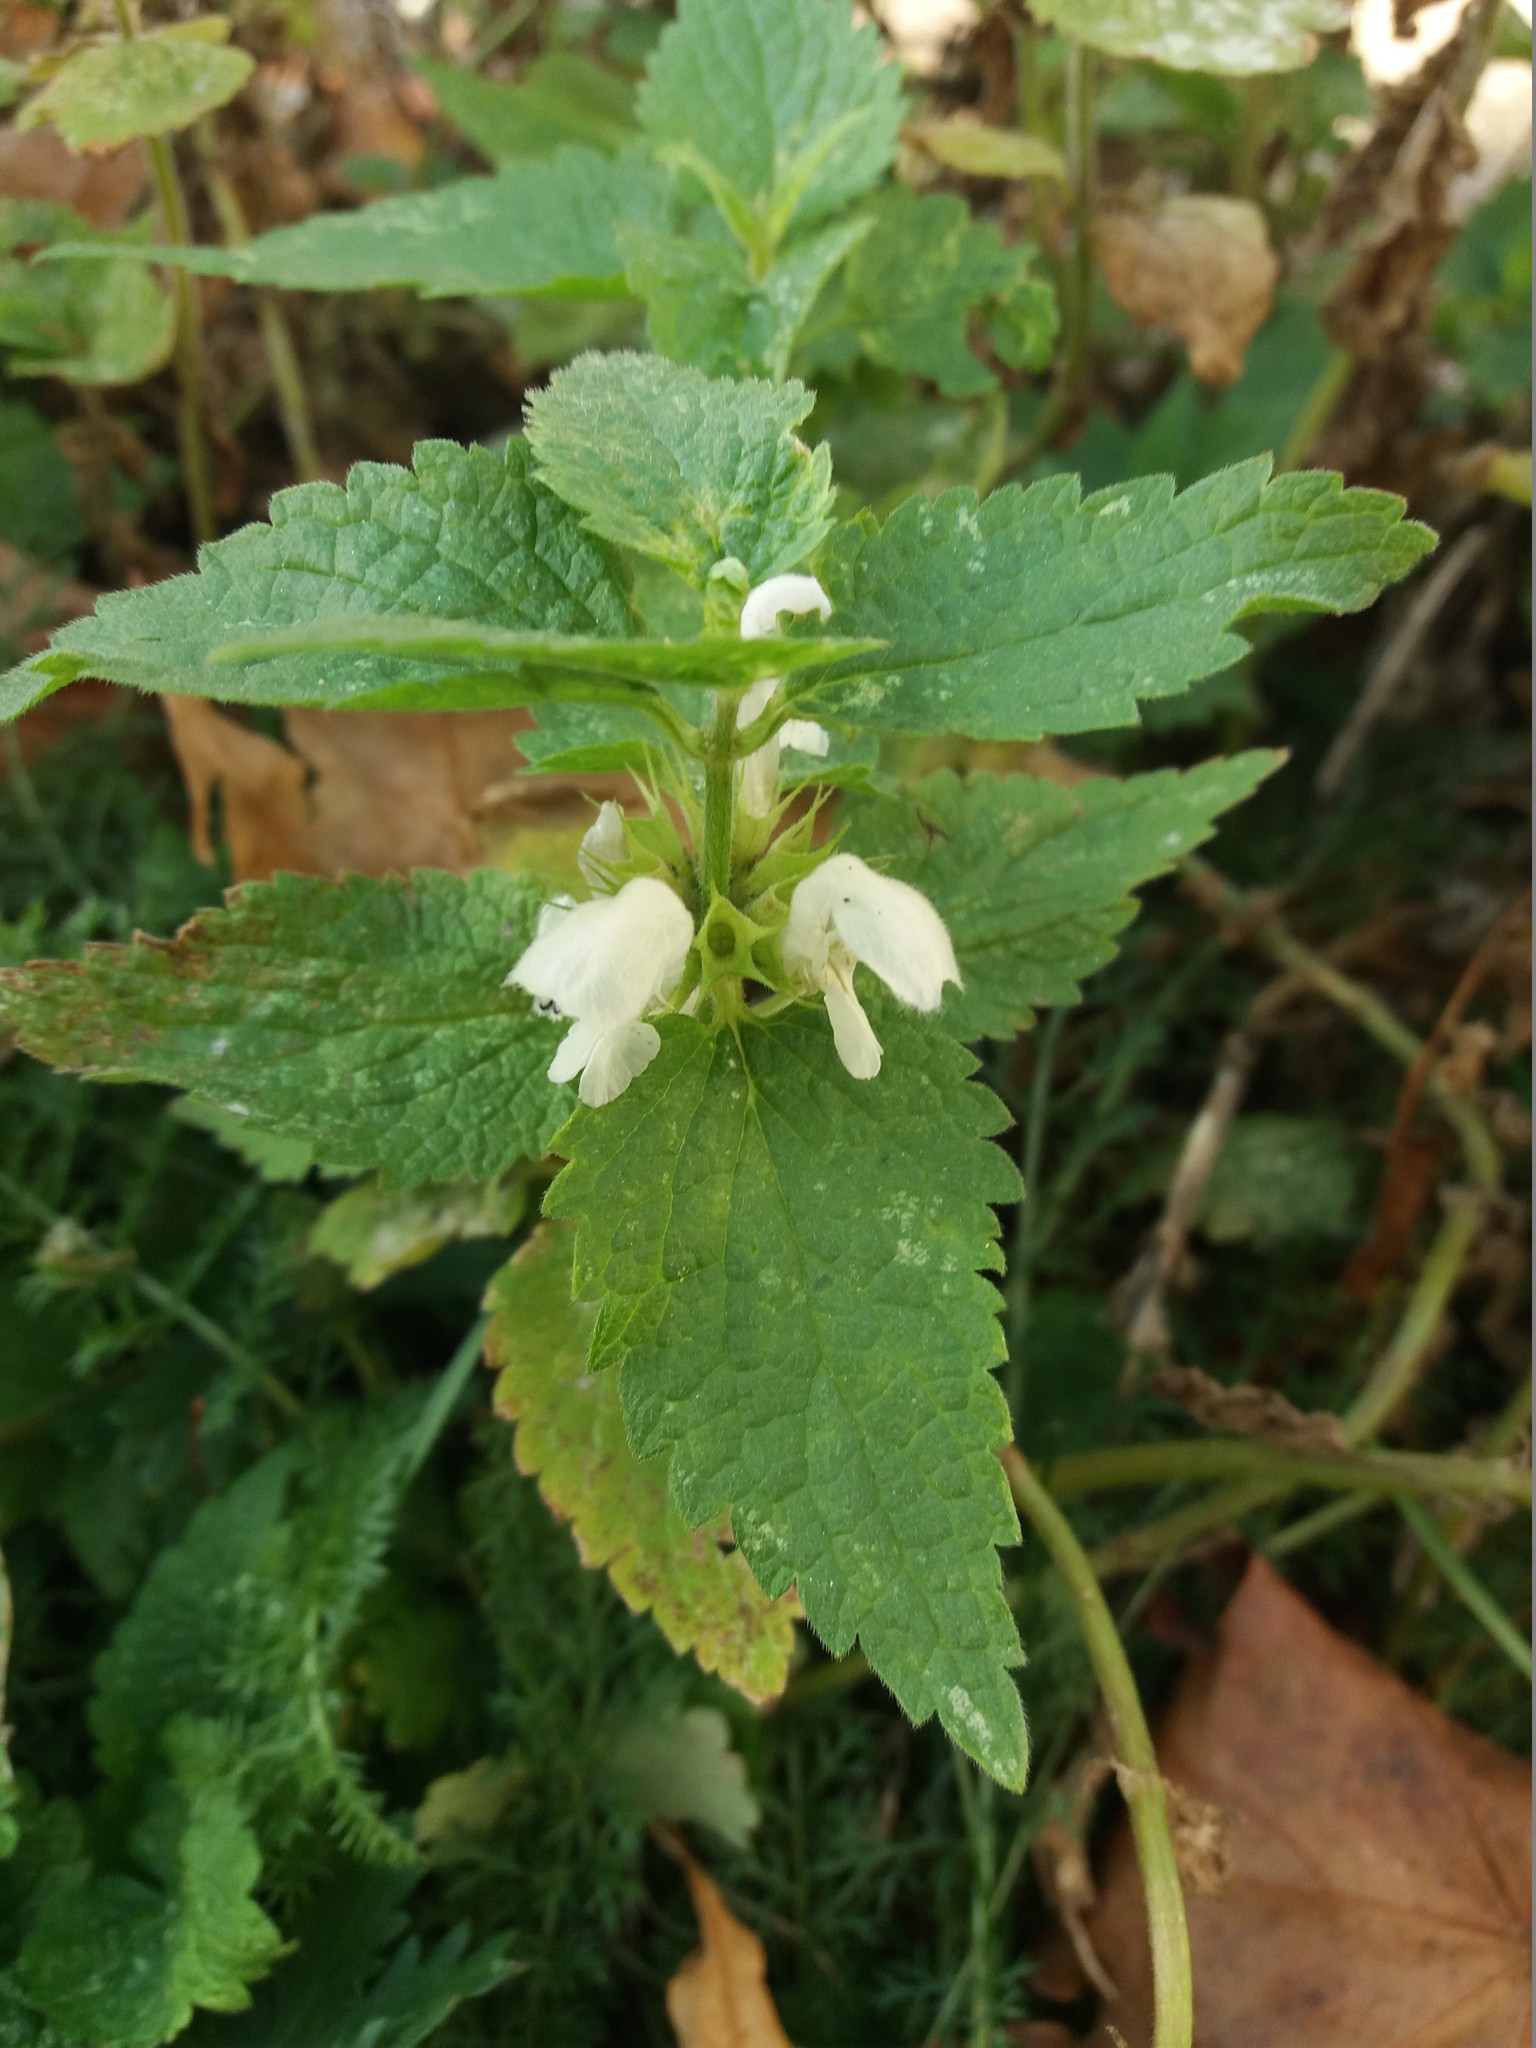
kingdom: Plantae
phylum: Tracheophyta
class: Magnoliopsida
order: Lamiales
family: Lamiaceae
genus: Lamium
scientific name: Lamium album
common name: White dead-nettle
